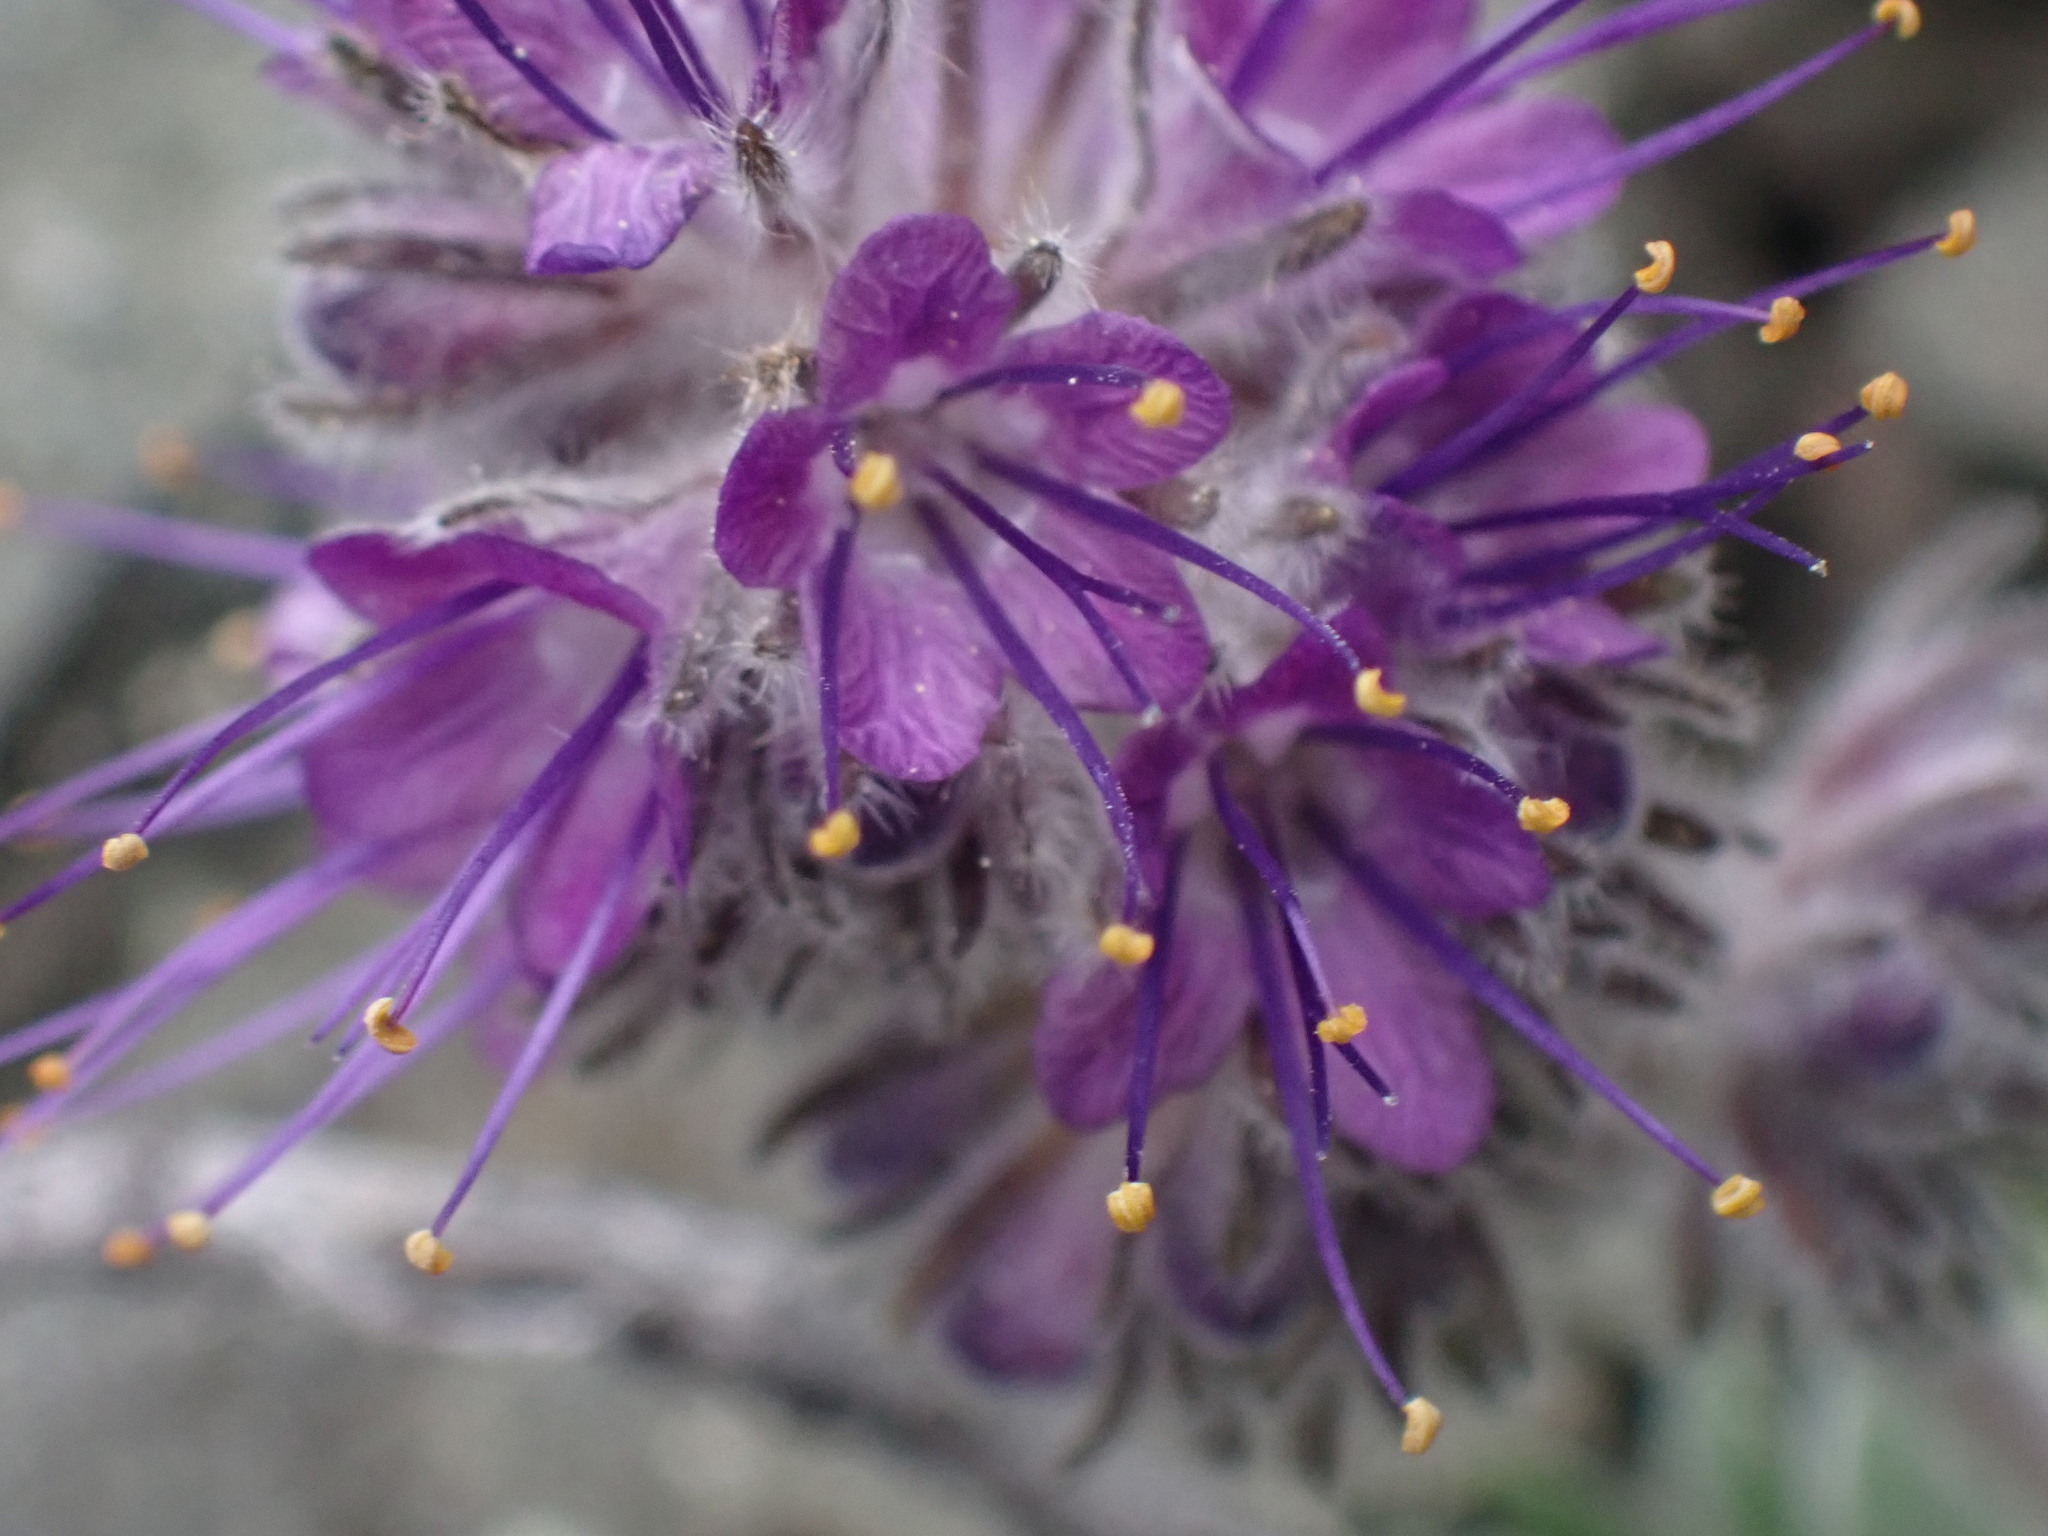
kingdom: Plantae
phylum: Tracheophyta
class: Magnoliopsida
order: Boraginales
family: Hydrophyllaceae
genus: Phacelia
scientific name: Phacelia sericea
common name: Silky phacelia
